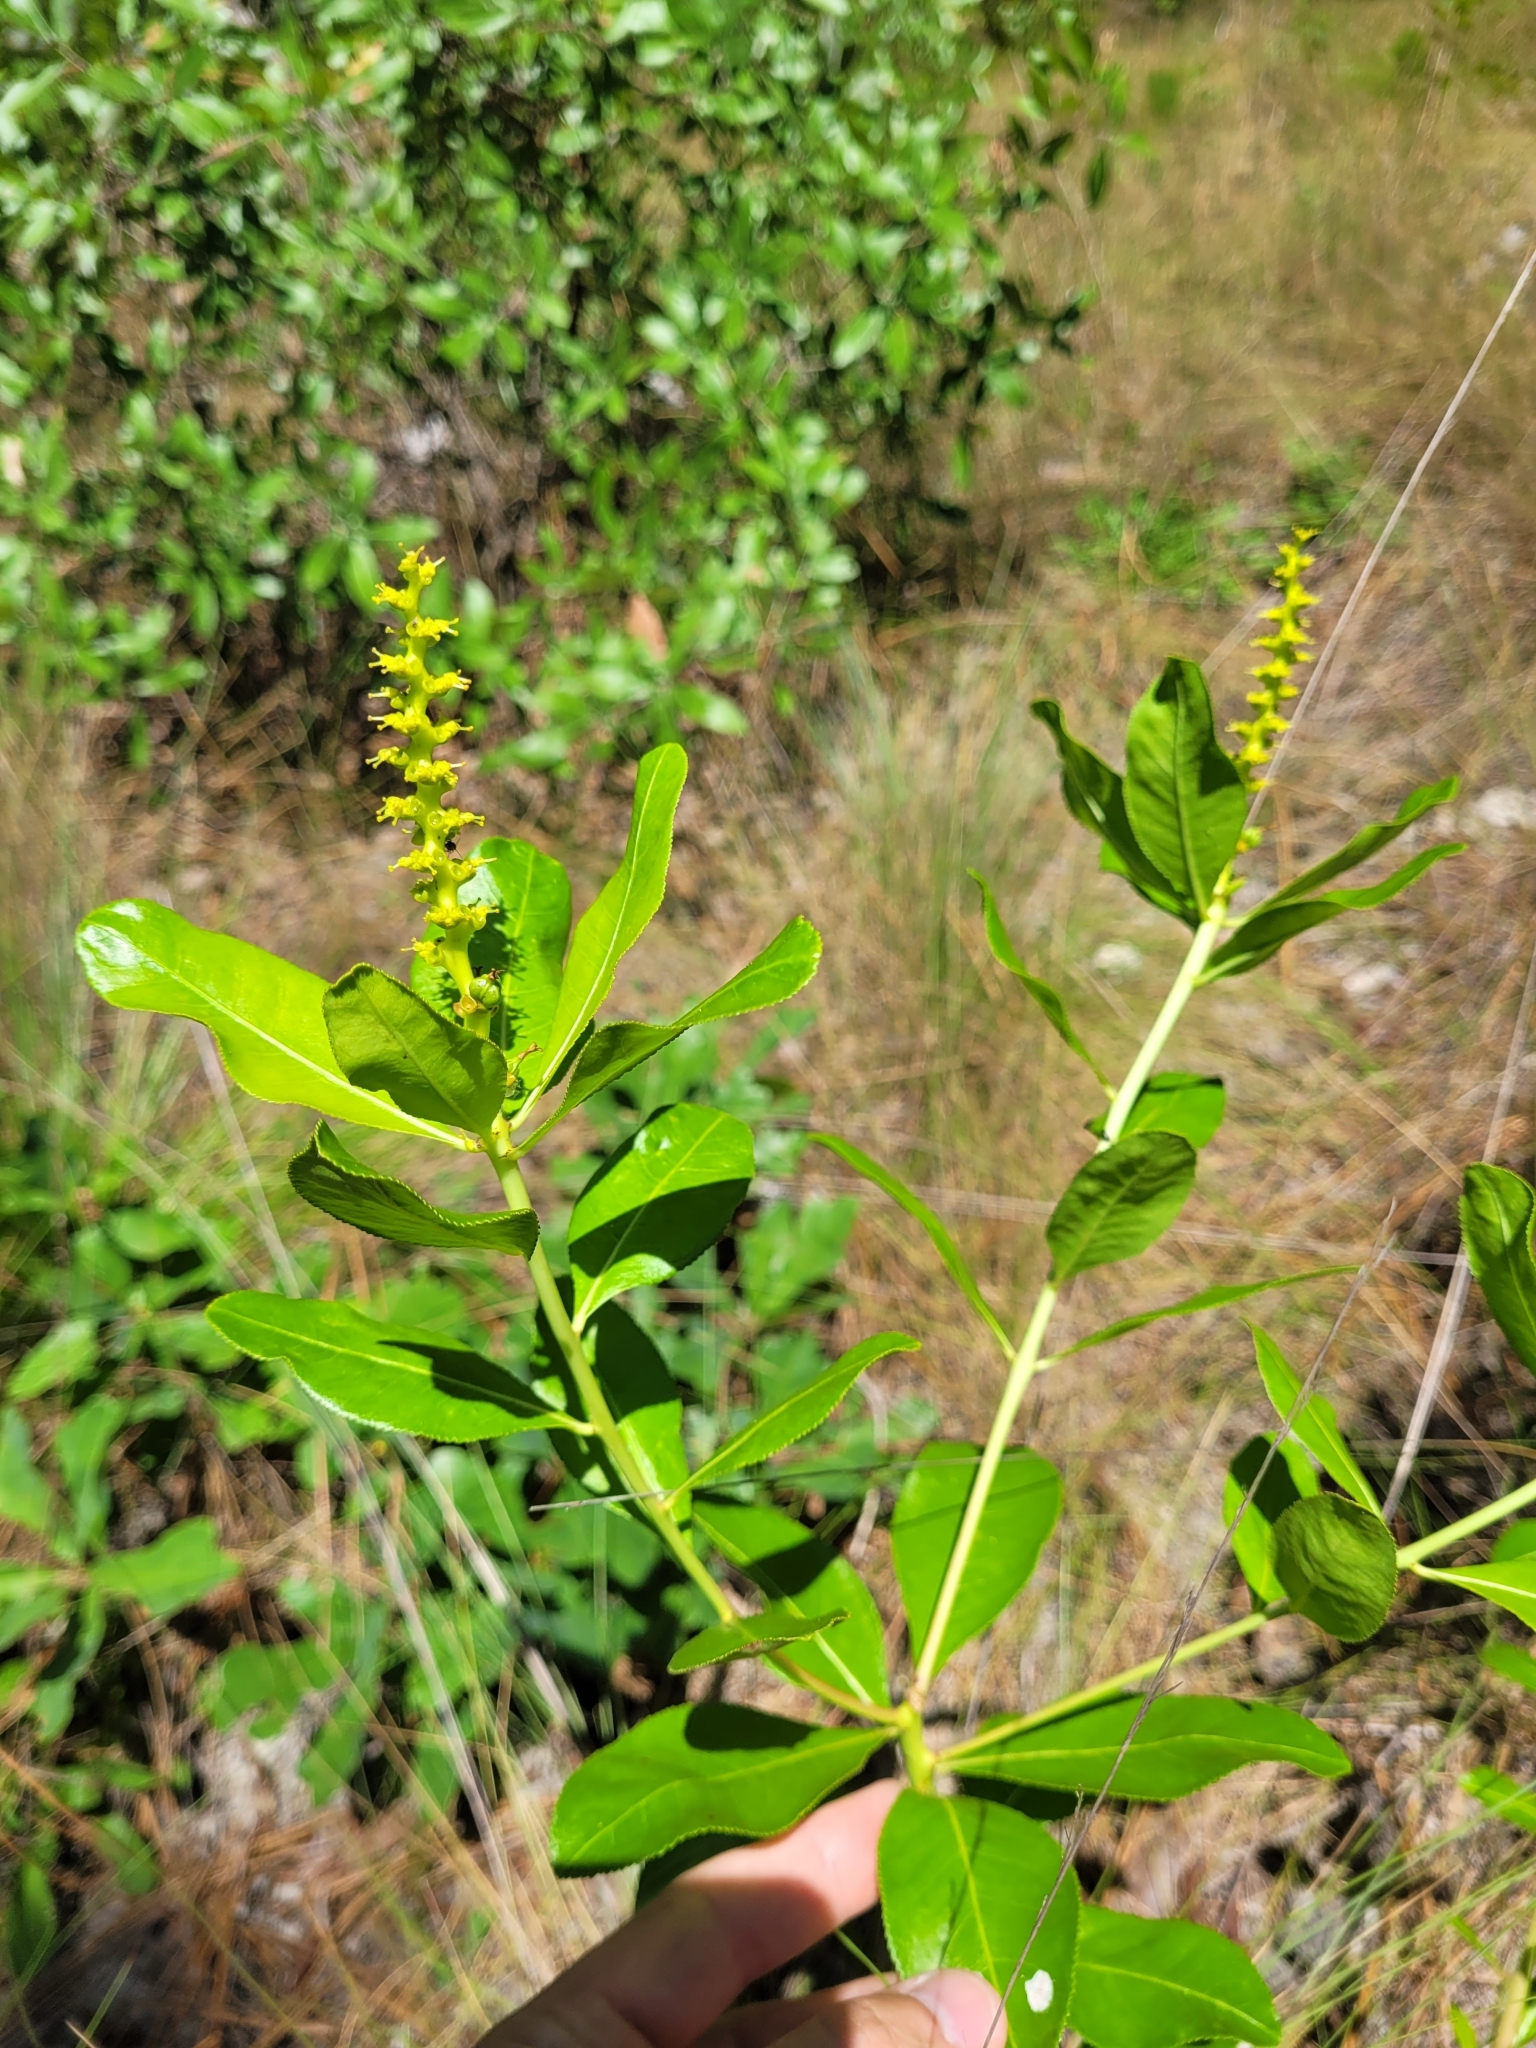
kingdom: Plantae
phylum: Tracheophyta
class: Magnoliopsida
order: Malpighiales
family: Euphorbiaceae
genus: Stillingia
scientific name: Stillingia sylvatica
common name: Queen's-delight
